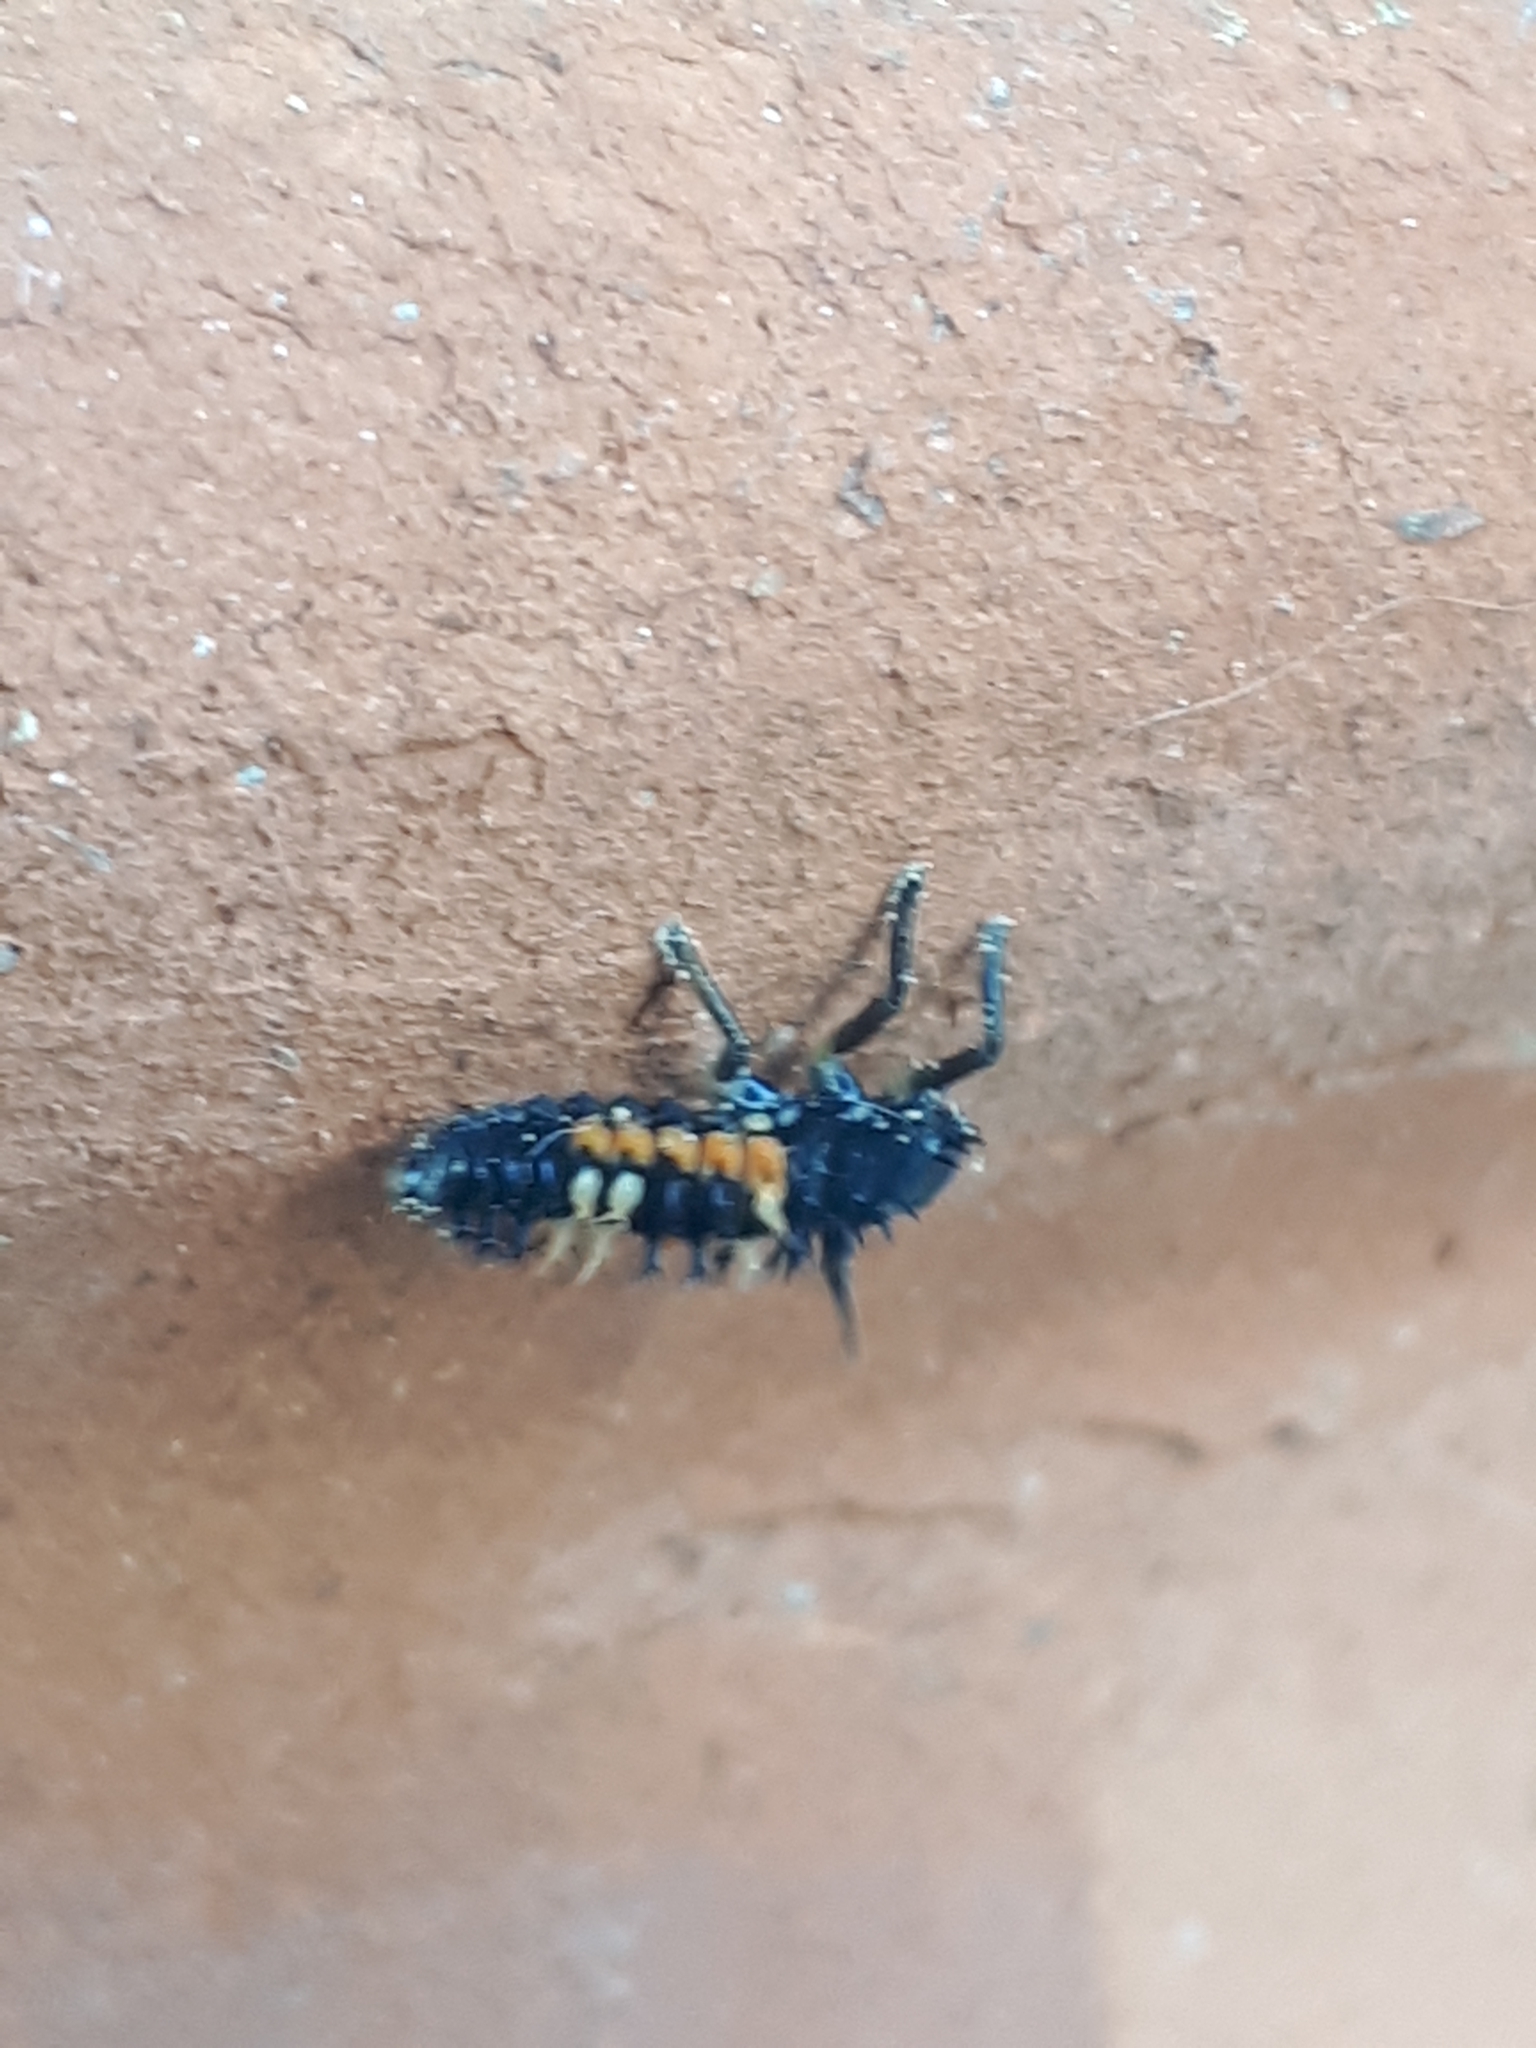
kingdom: Animalia
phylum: Arthropoda
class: Insecta
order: Coleoptera
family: Coccinellidae
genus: Harmonia
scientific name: Harmonia axyridis
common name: Harlequin ladybird
